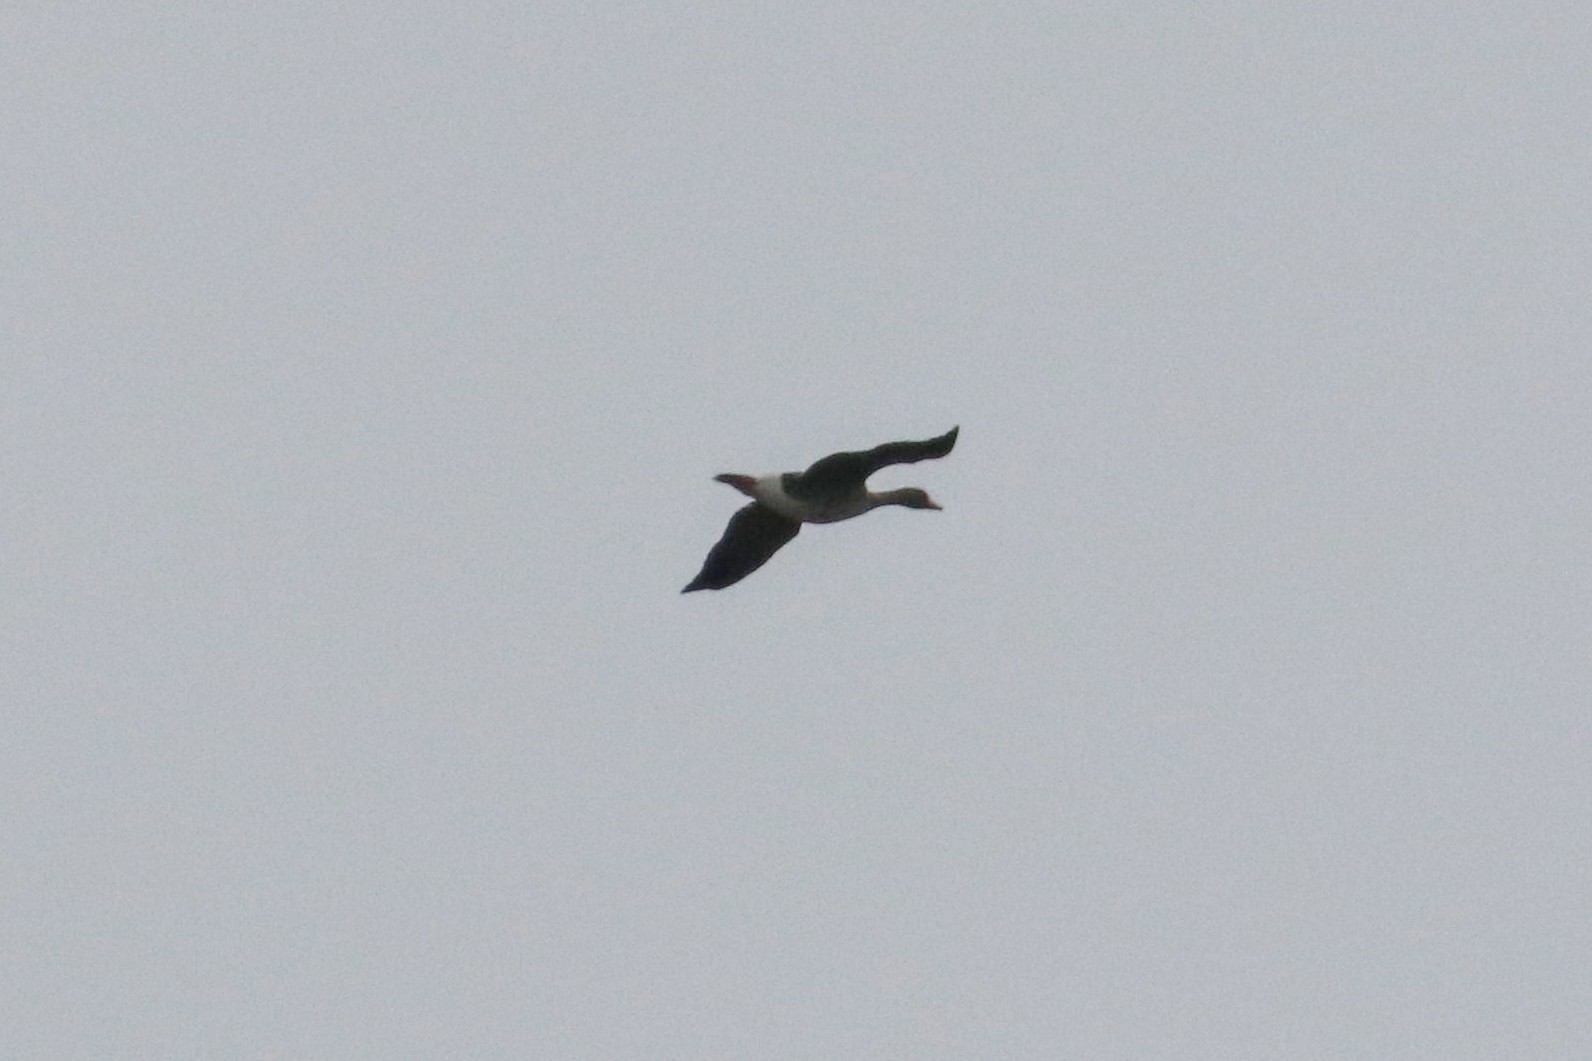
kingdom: Animalia
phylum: Chordata
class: Aves
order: Anseriformes
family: Anatidae
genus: Anser
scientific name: Anser albifrons
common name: Greater white-fronted goose
